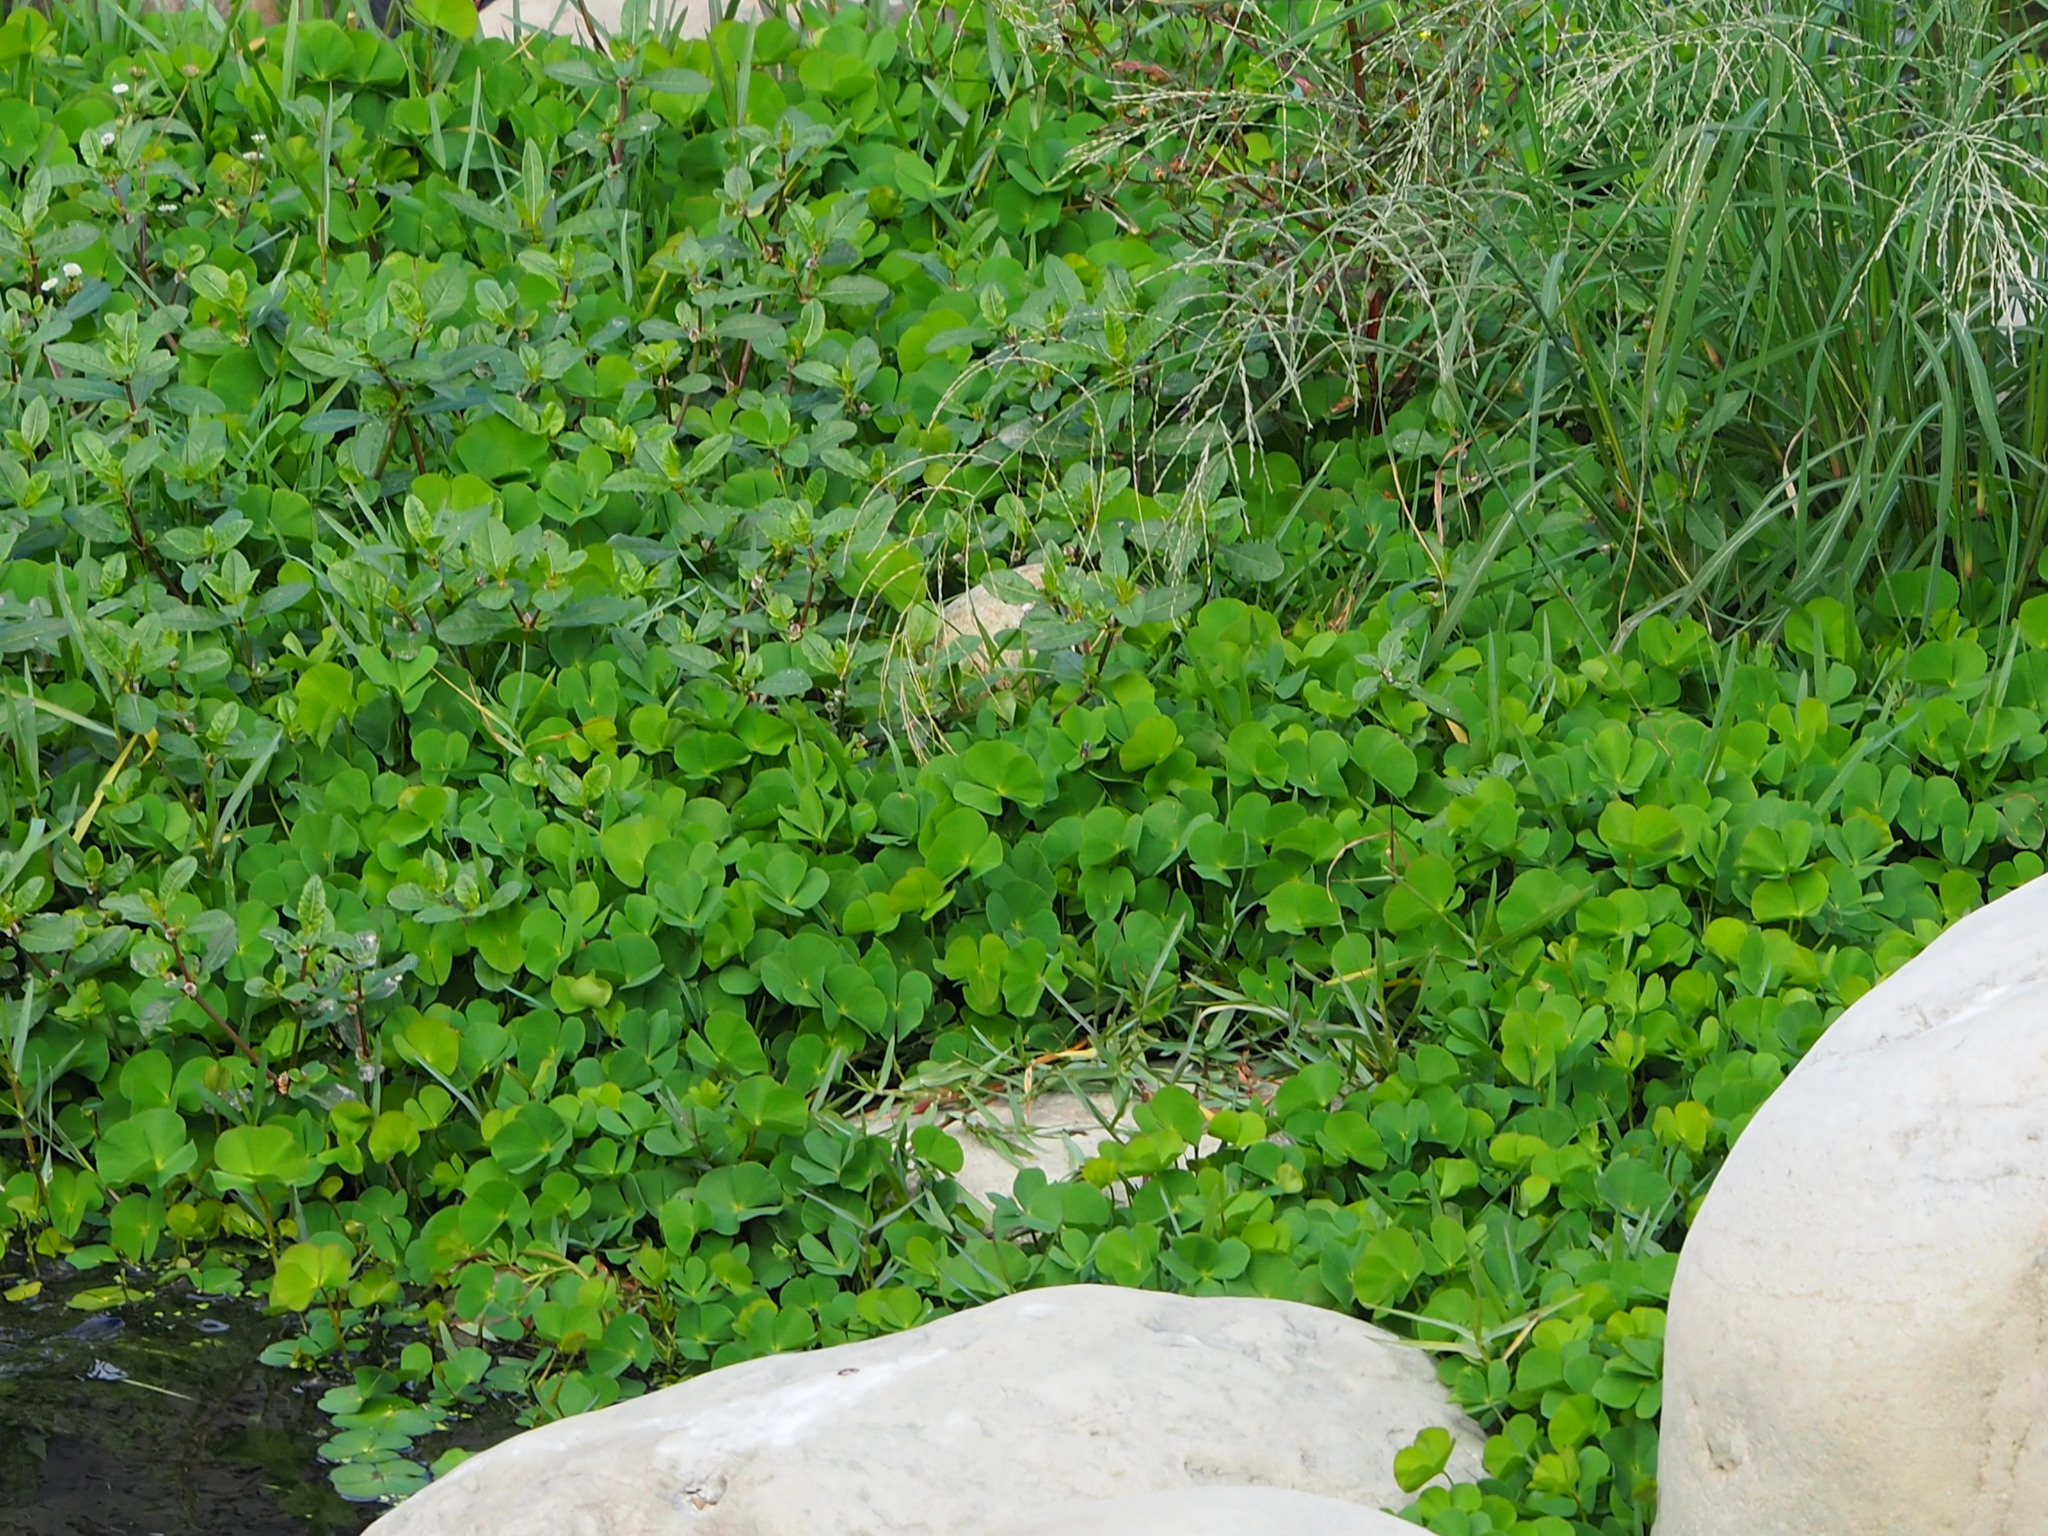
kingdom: Plantae
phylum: Tracheophyta
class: Polypodiopsida
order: Salviniales
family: Marsileaceae
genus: Marsilea
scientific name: Marsilea minuta
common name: Dwarf waterclover
